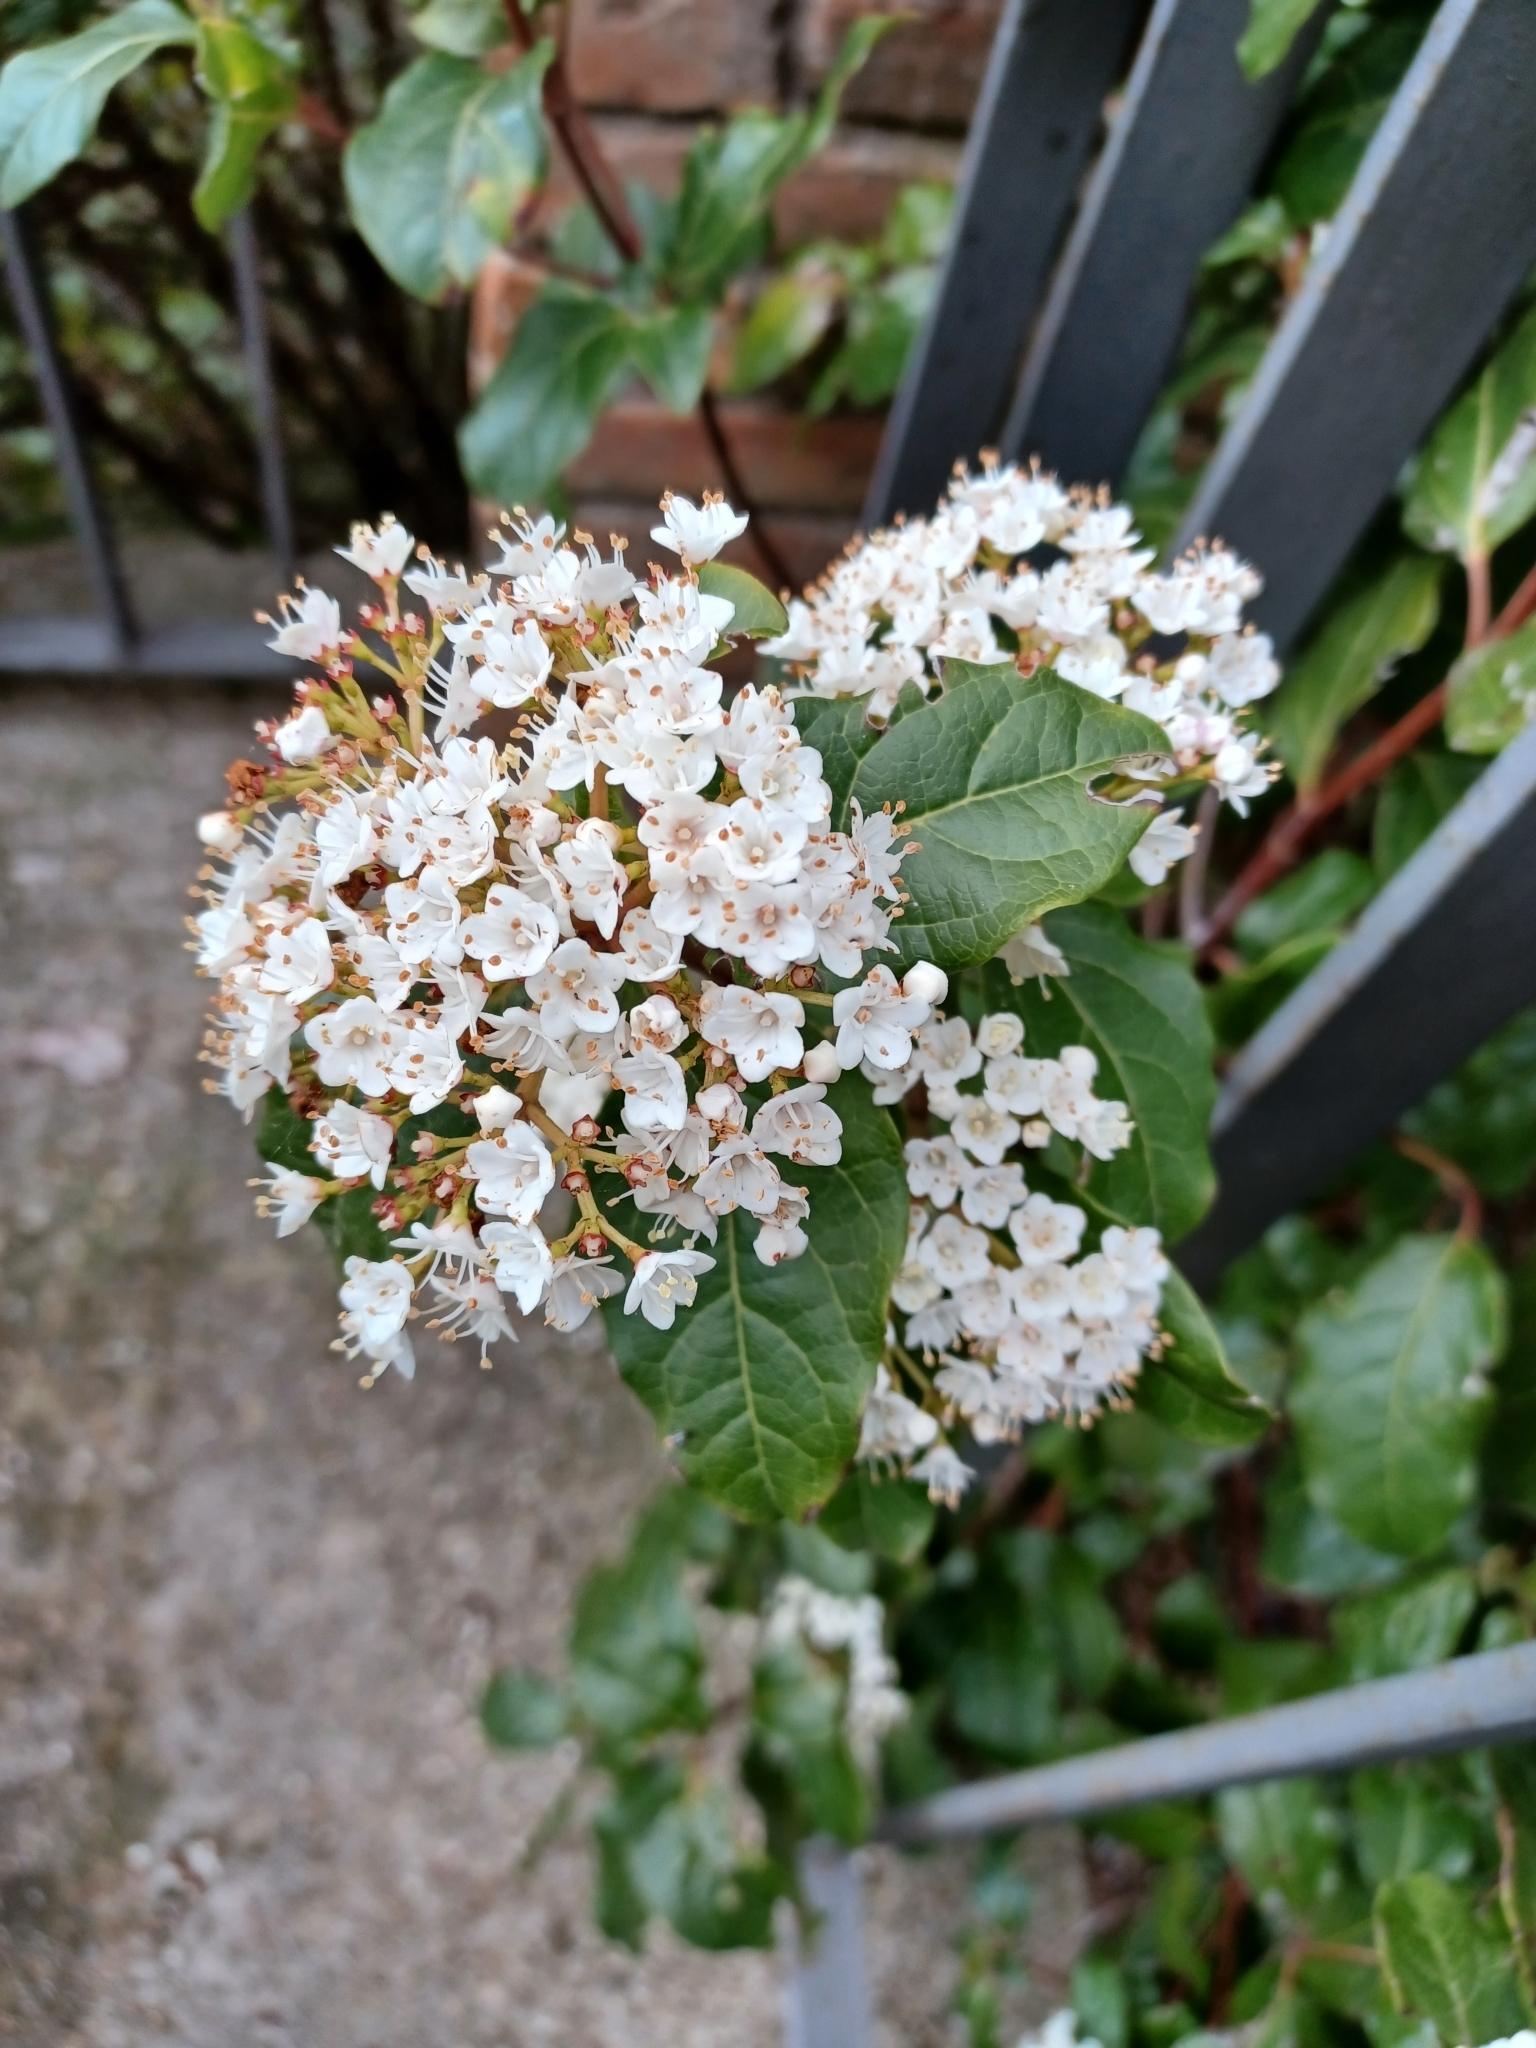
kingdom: Plantae
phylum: Tracheophyta
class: Magnoliopsida
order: Dipsacales
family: Viburnaceae
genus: Viburnum
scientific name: Viburnum tinus
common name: Laurustinus
